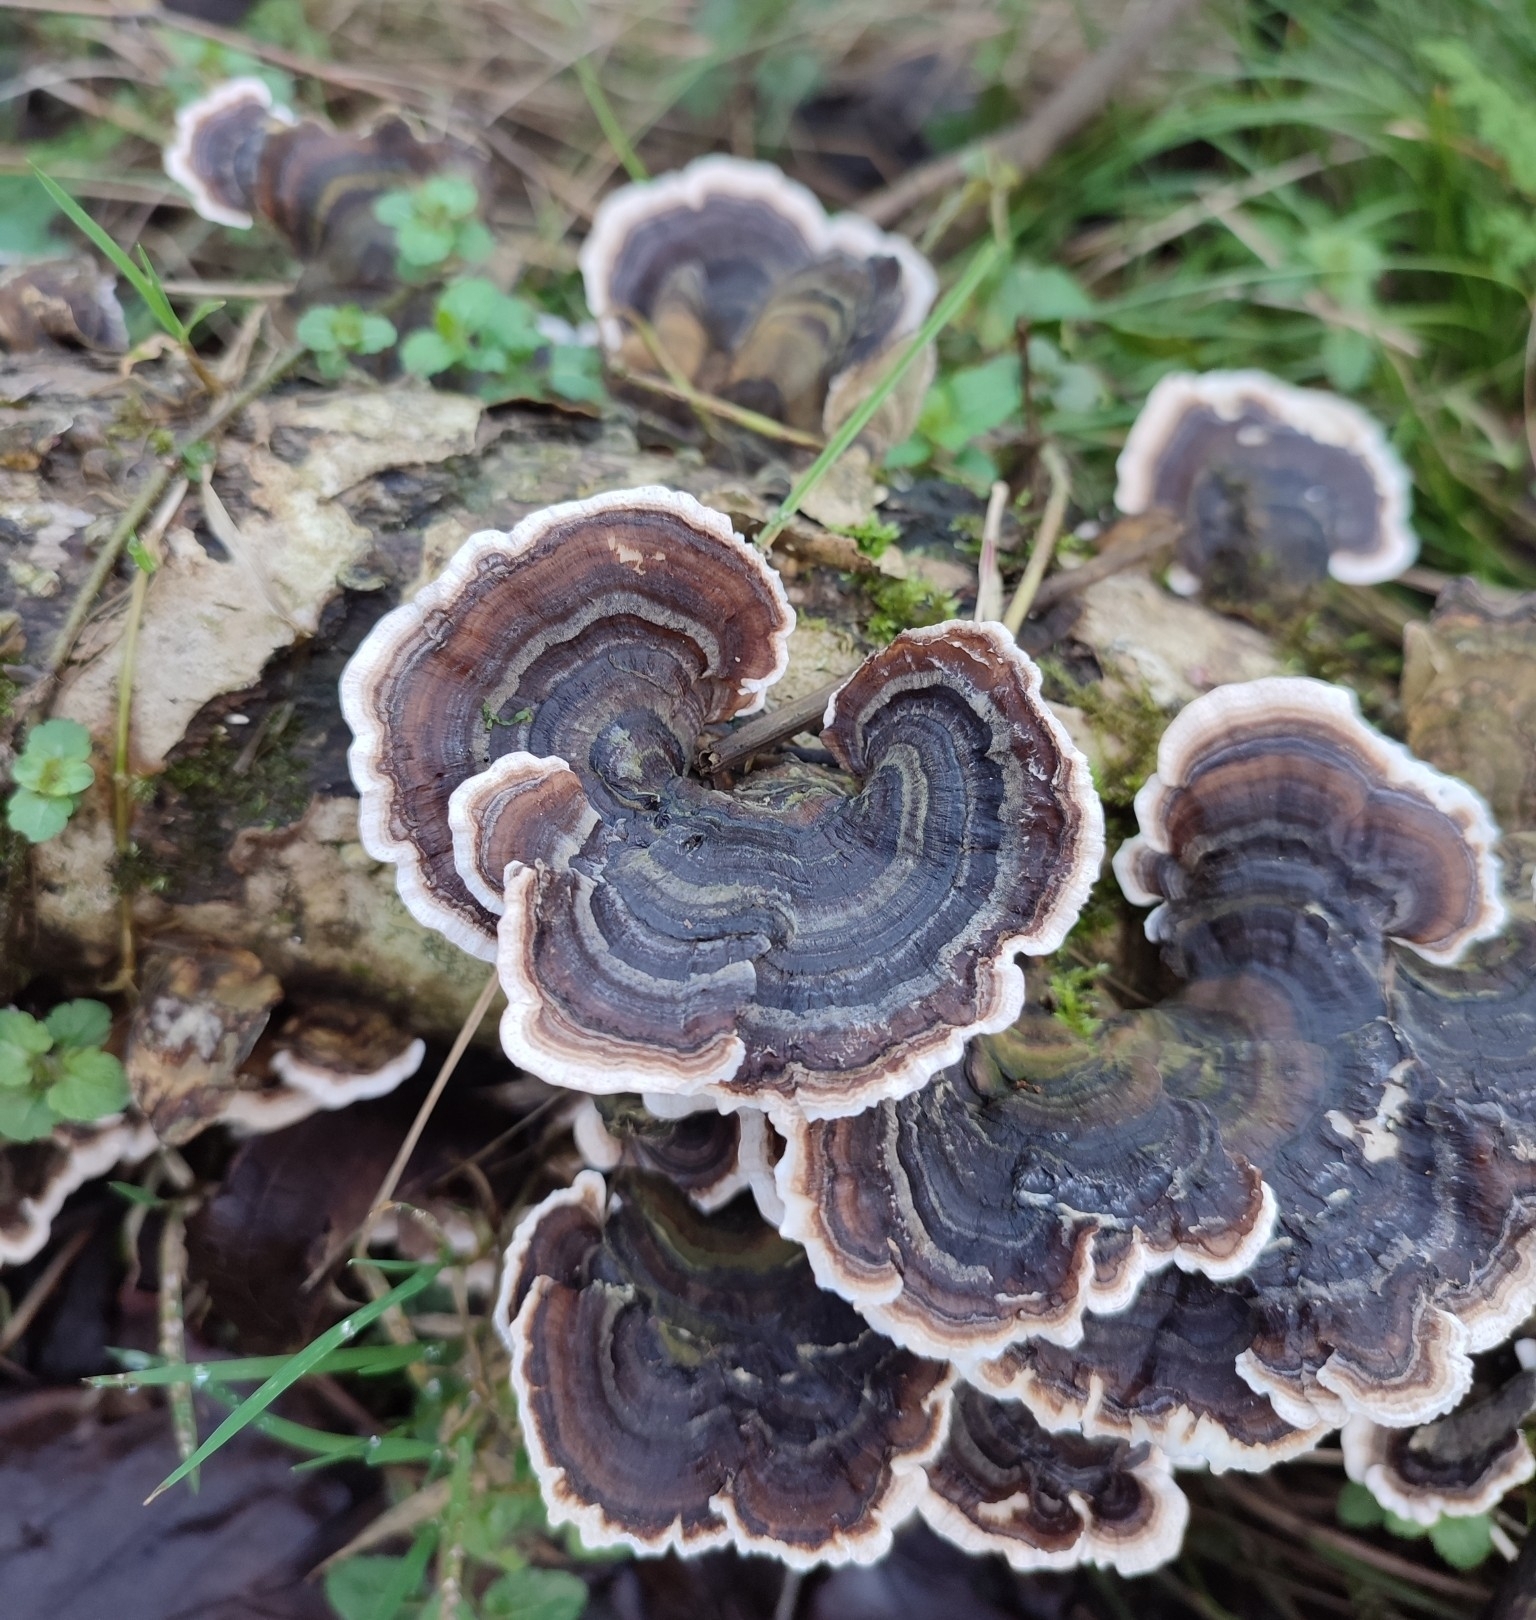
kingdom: Fungi
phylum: Basidiomycota
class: Agaricomycetes
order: Polyporales
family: Polyporaceae
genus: Trametes
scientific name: Trametes versicolor
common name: Turkeytail
